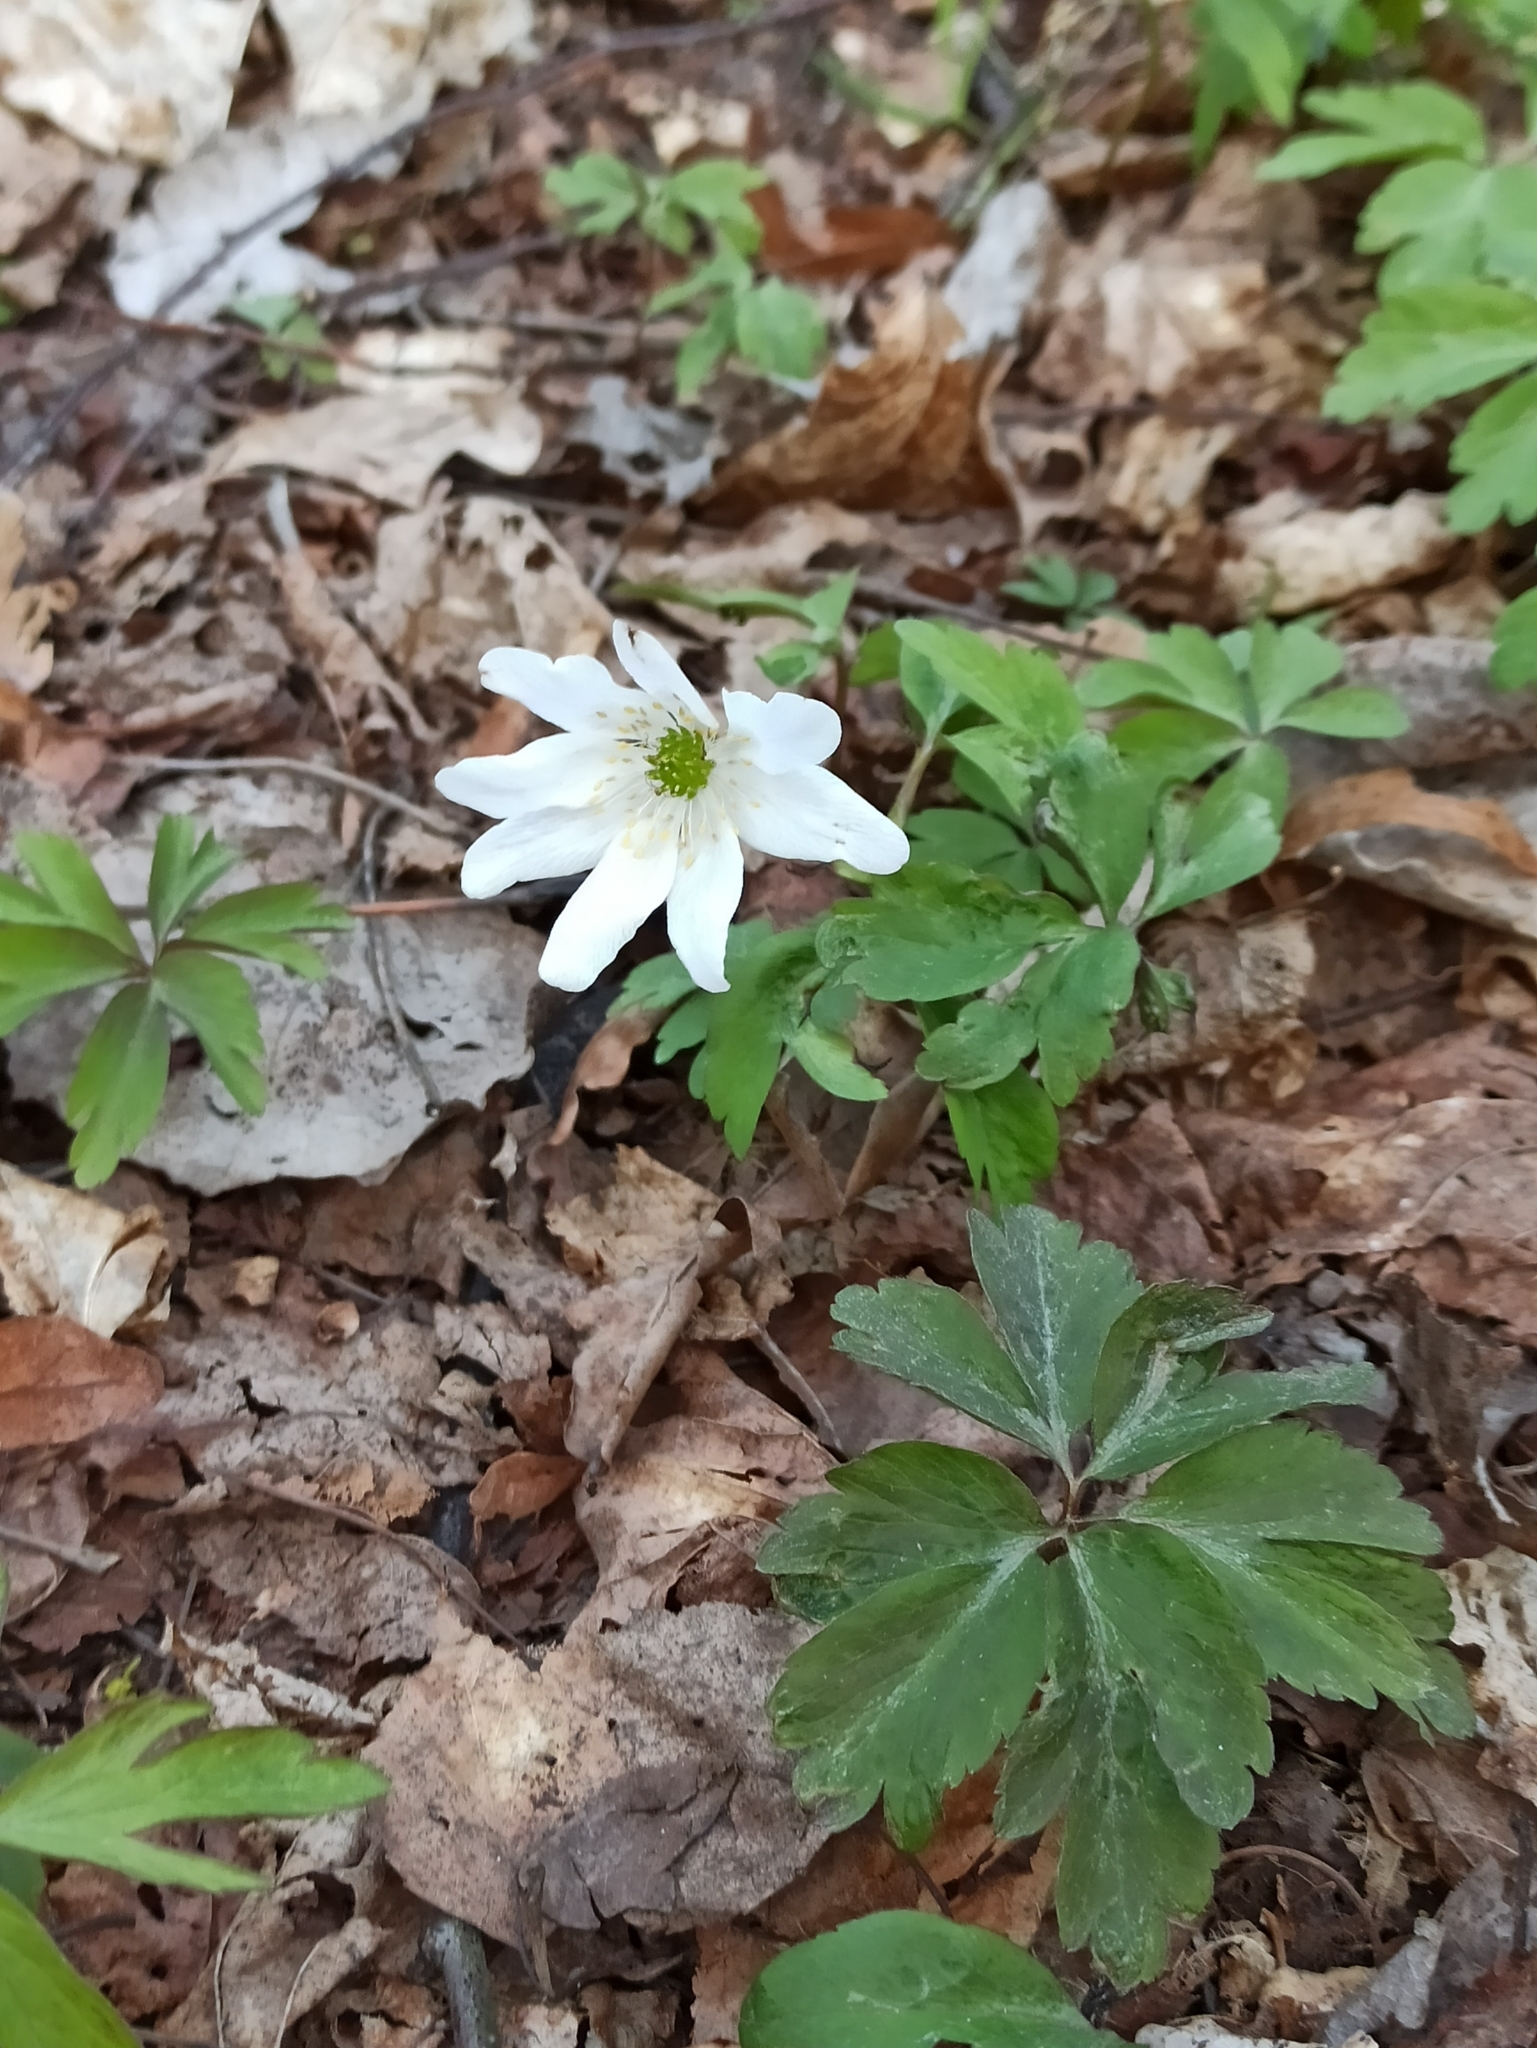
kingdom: Plantae
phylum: Tracheophyta
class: Magnoliopsida
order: Ranunculales
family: Ranunculaceae
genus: Anemone
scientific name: Anemone nemorosa
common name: Wood anemone
